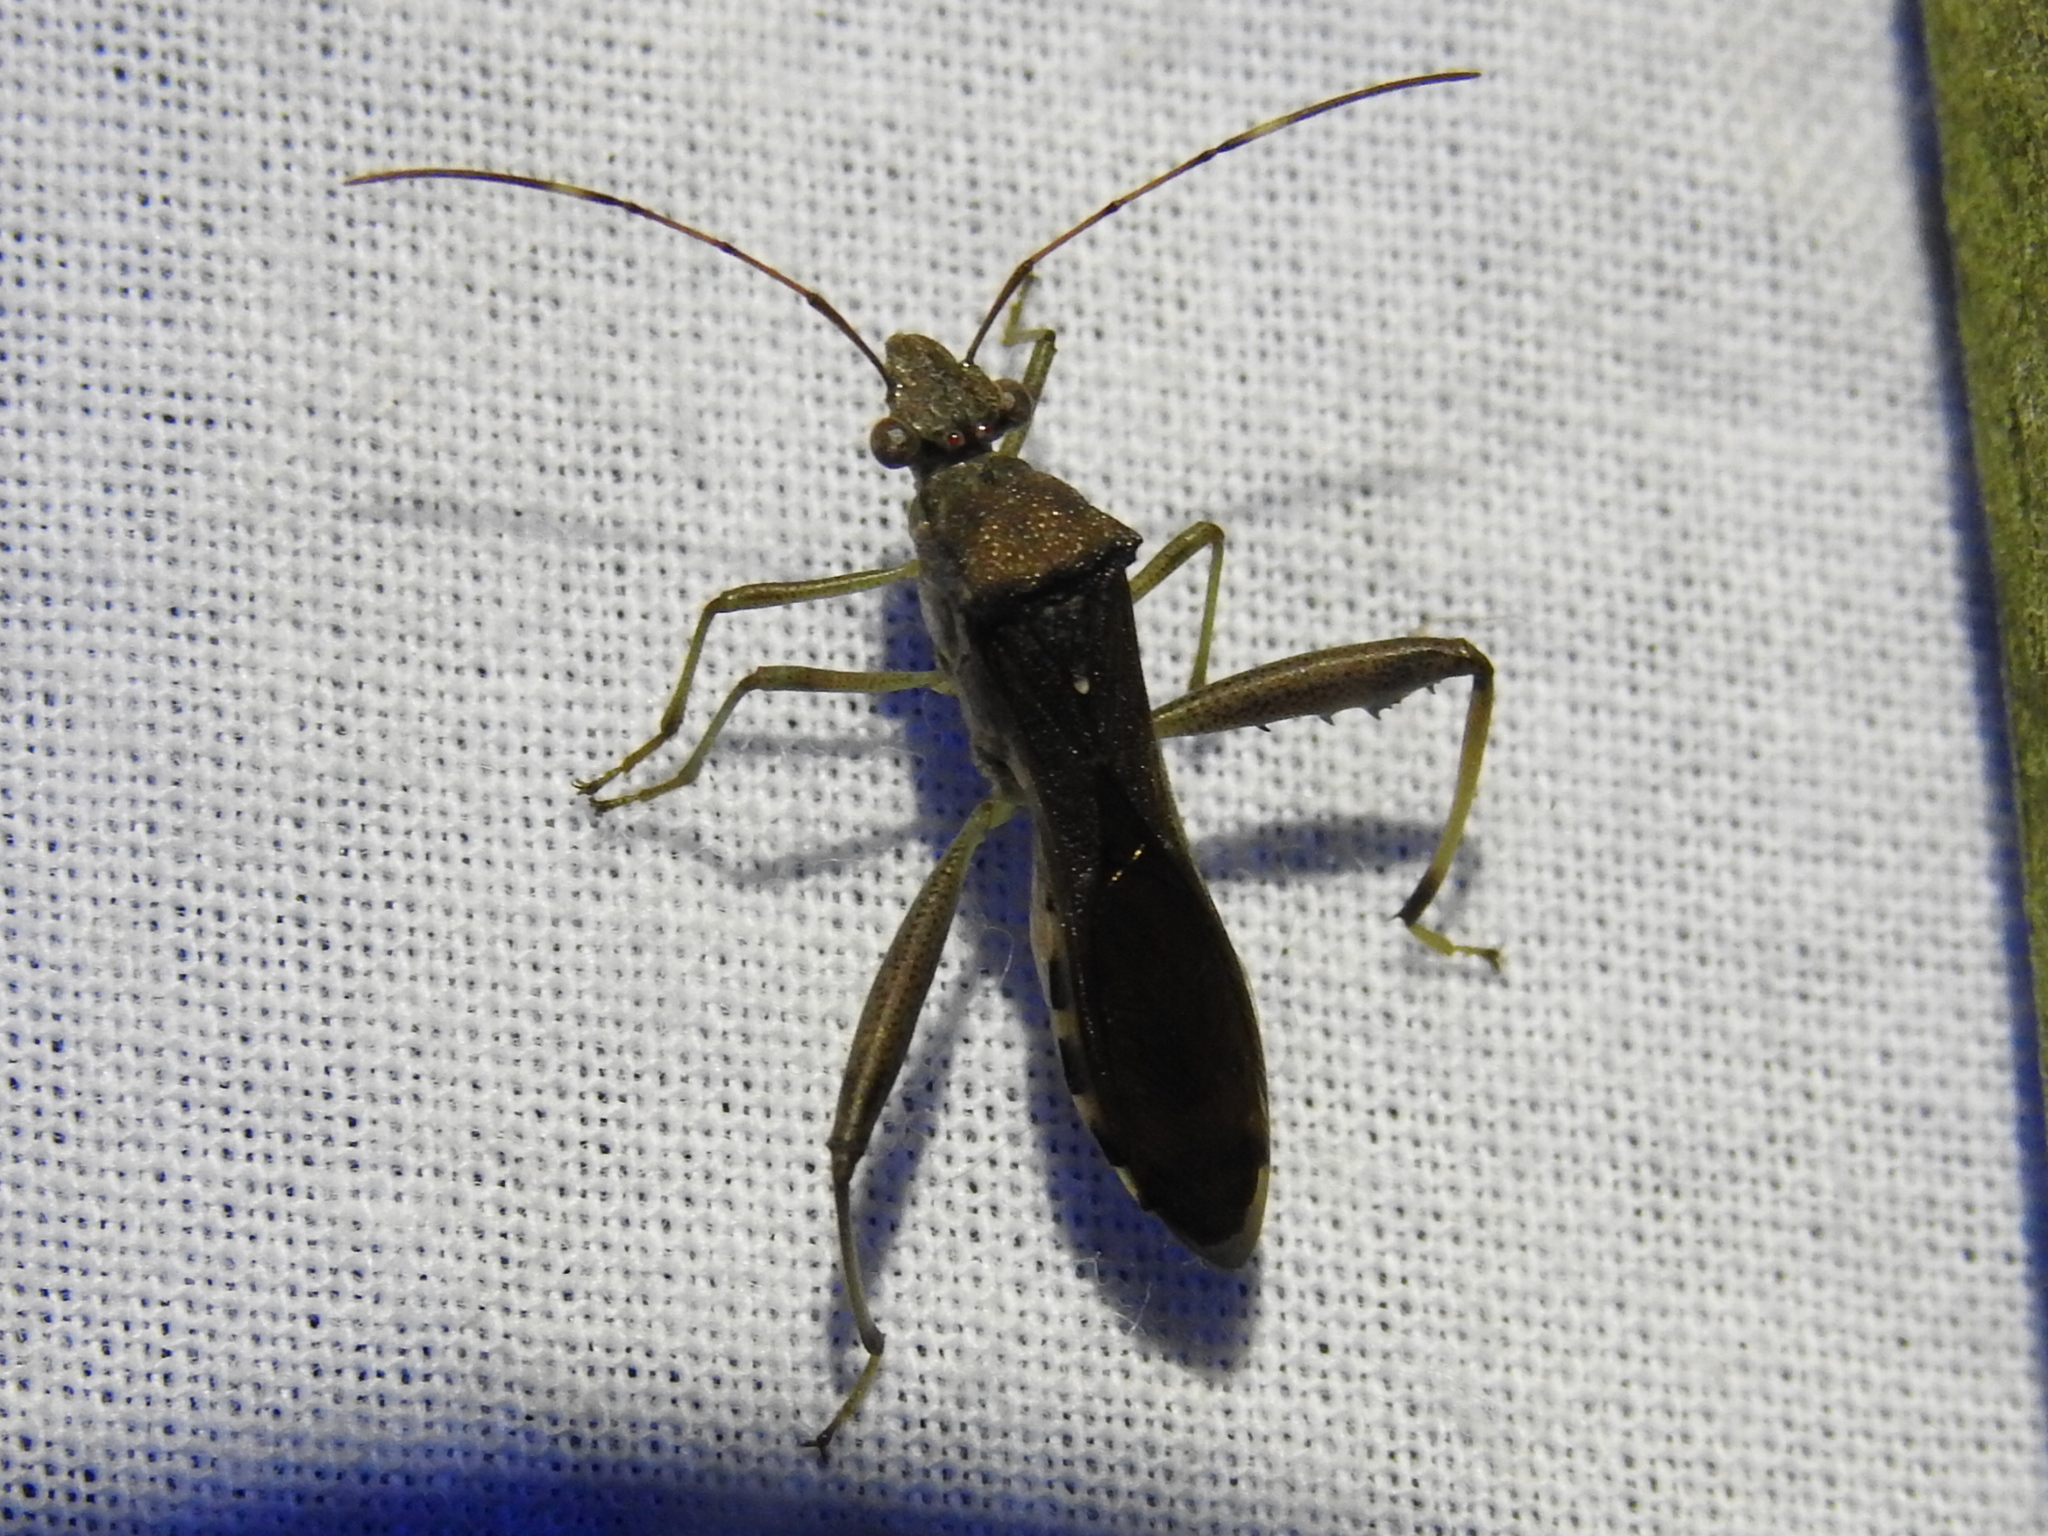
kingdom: Animalia
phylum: Arthropoda
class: Insecta
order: Hemiptera
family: Alydidae
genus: Hyalymenus
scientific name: Hyalymenus tarsatus
